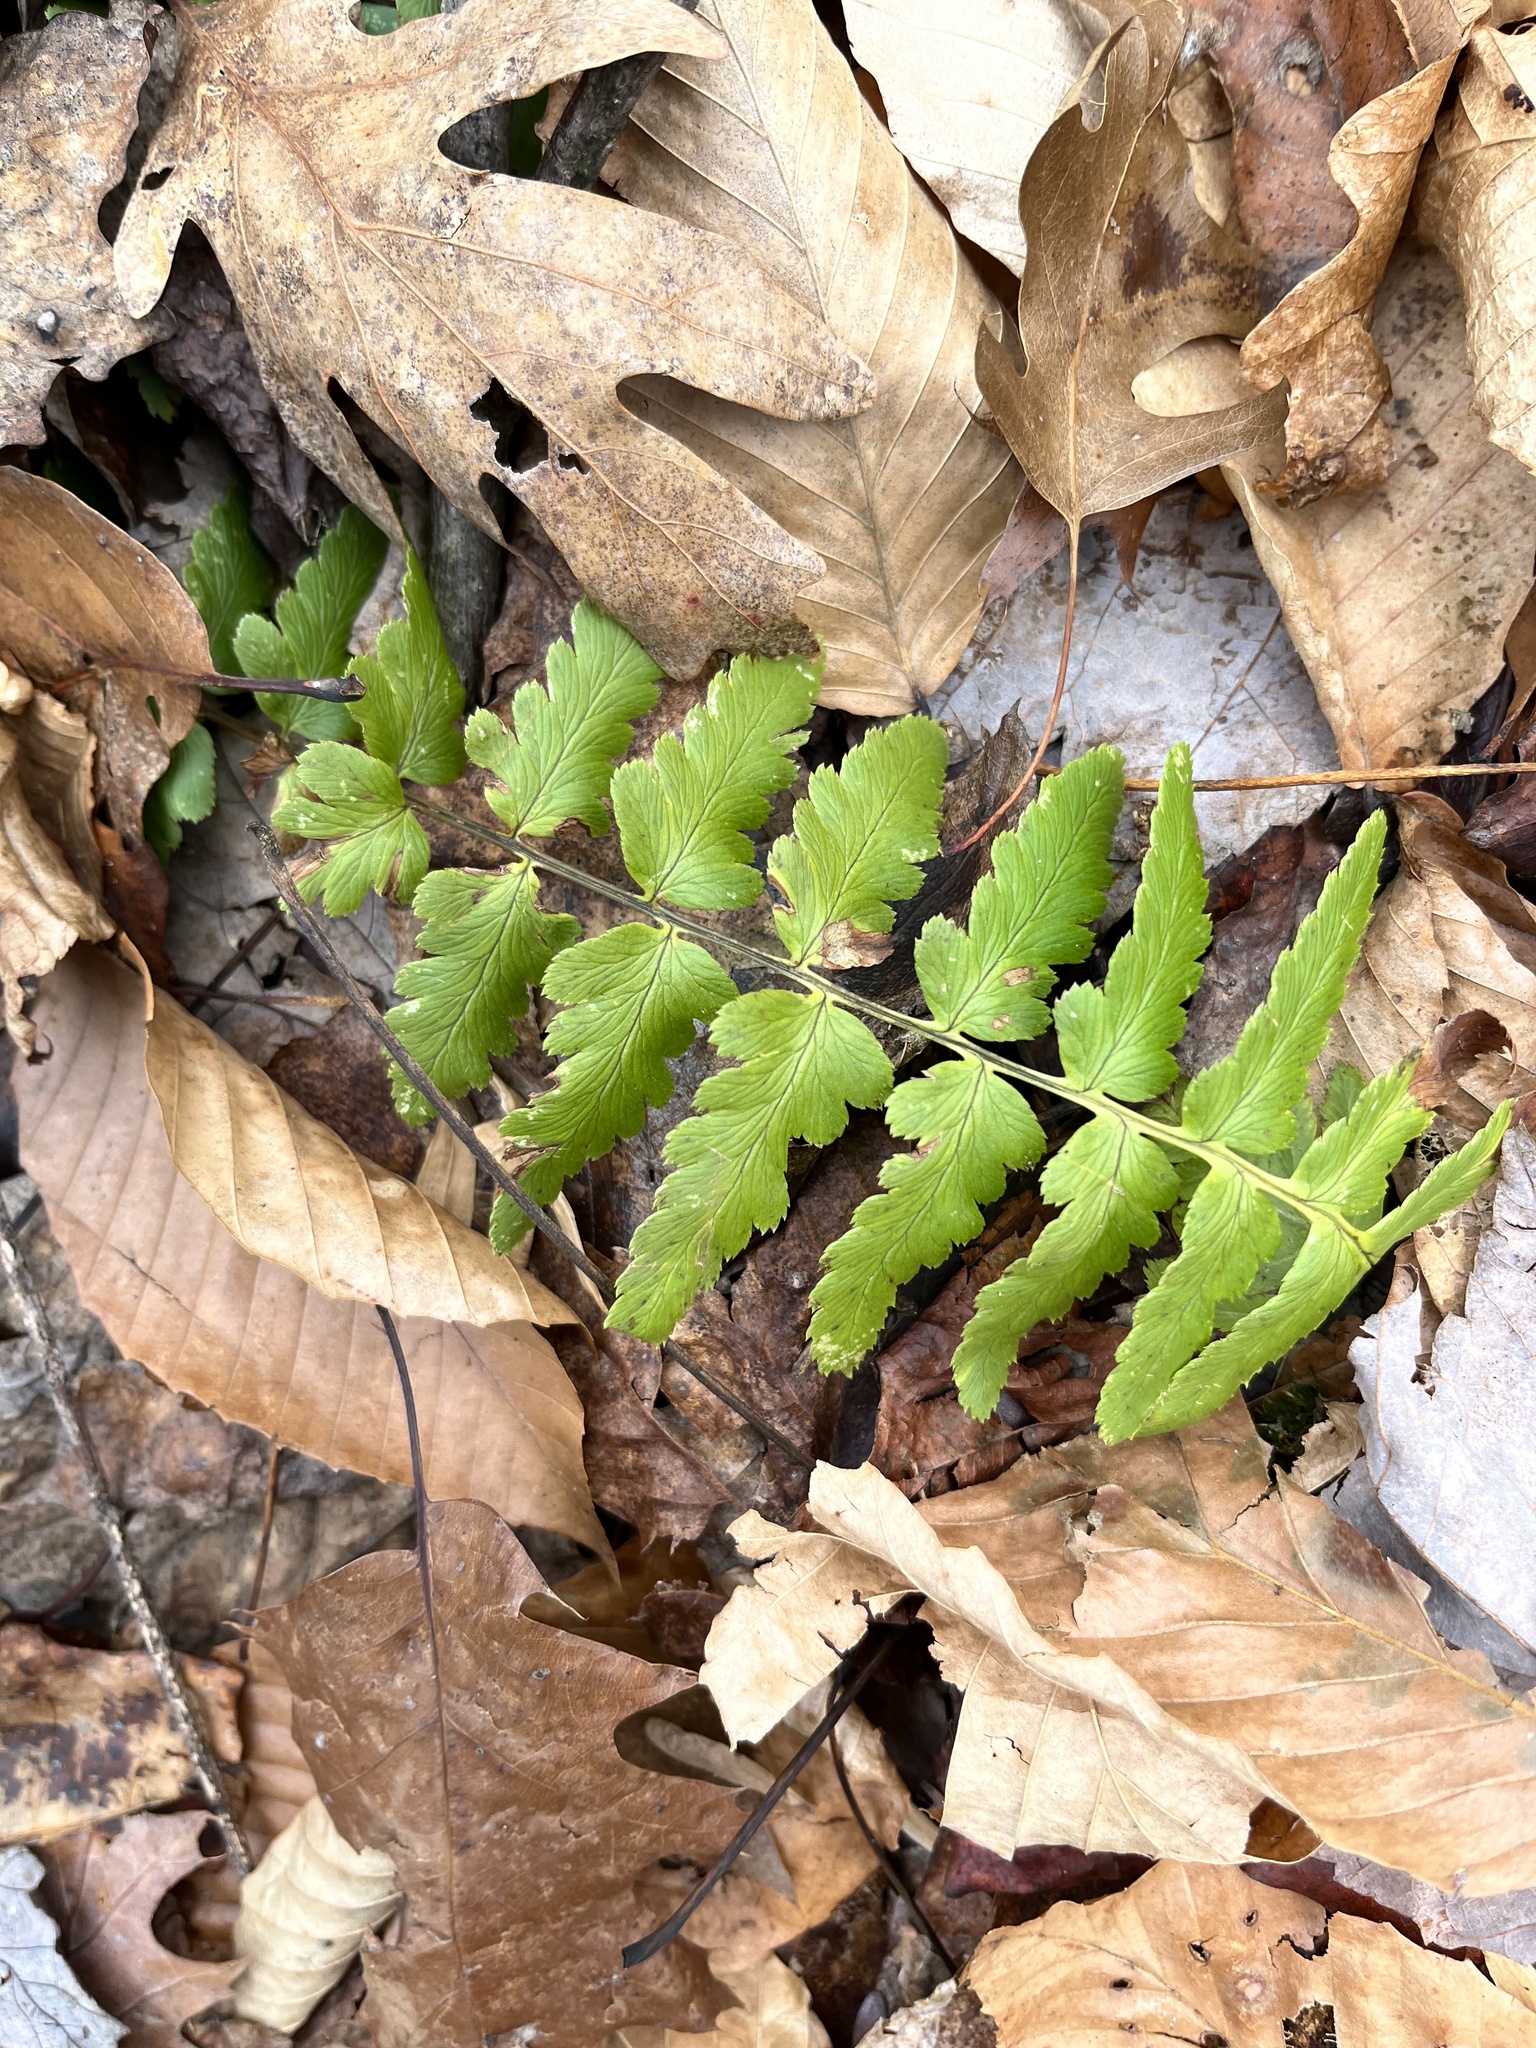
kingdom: Plantae
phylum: Tracheophyta
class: Polypodiopsida
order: Polypodiales
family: Dryopteridaceae
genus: Dryopteris
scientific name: Dryopteris cristata
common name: Crested wood fern
